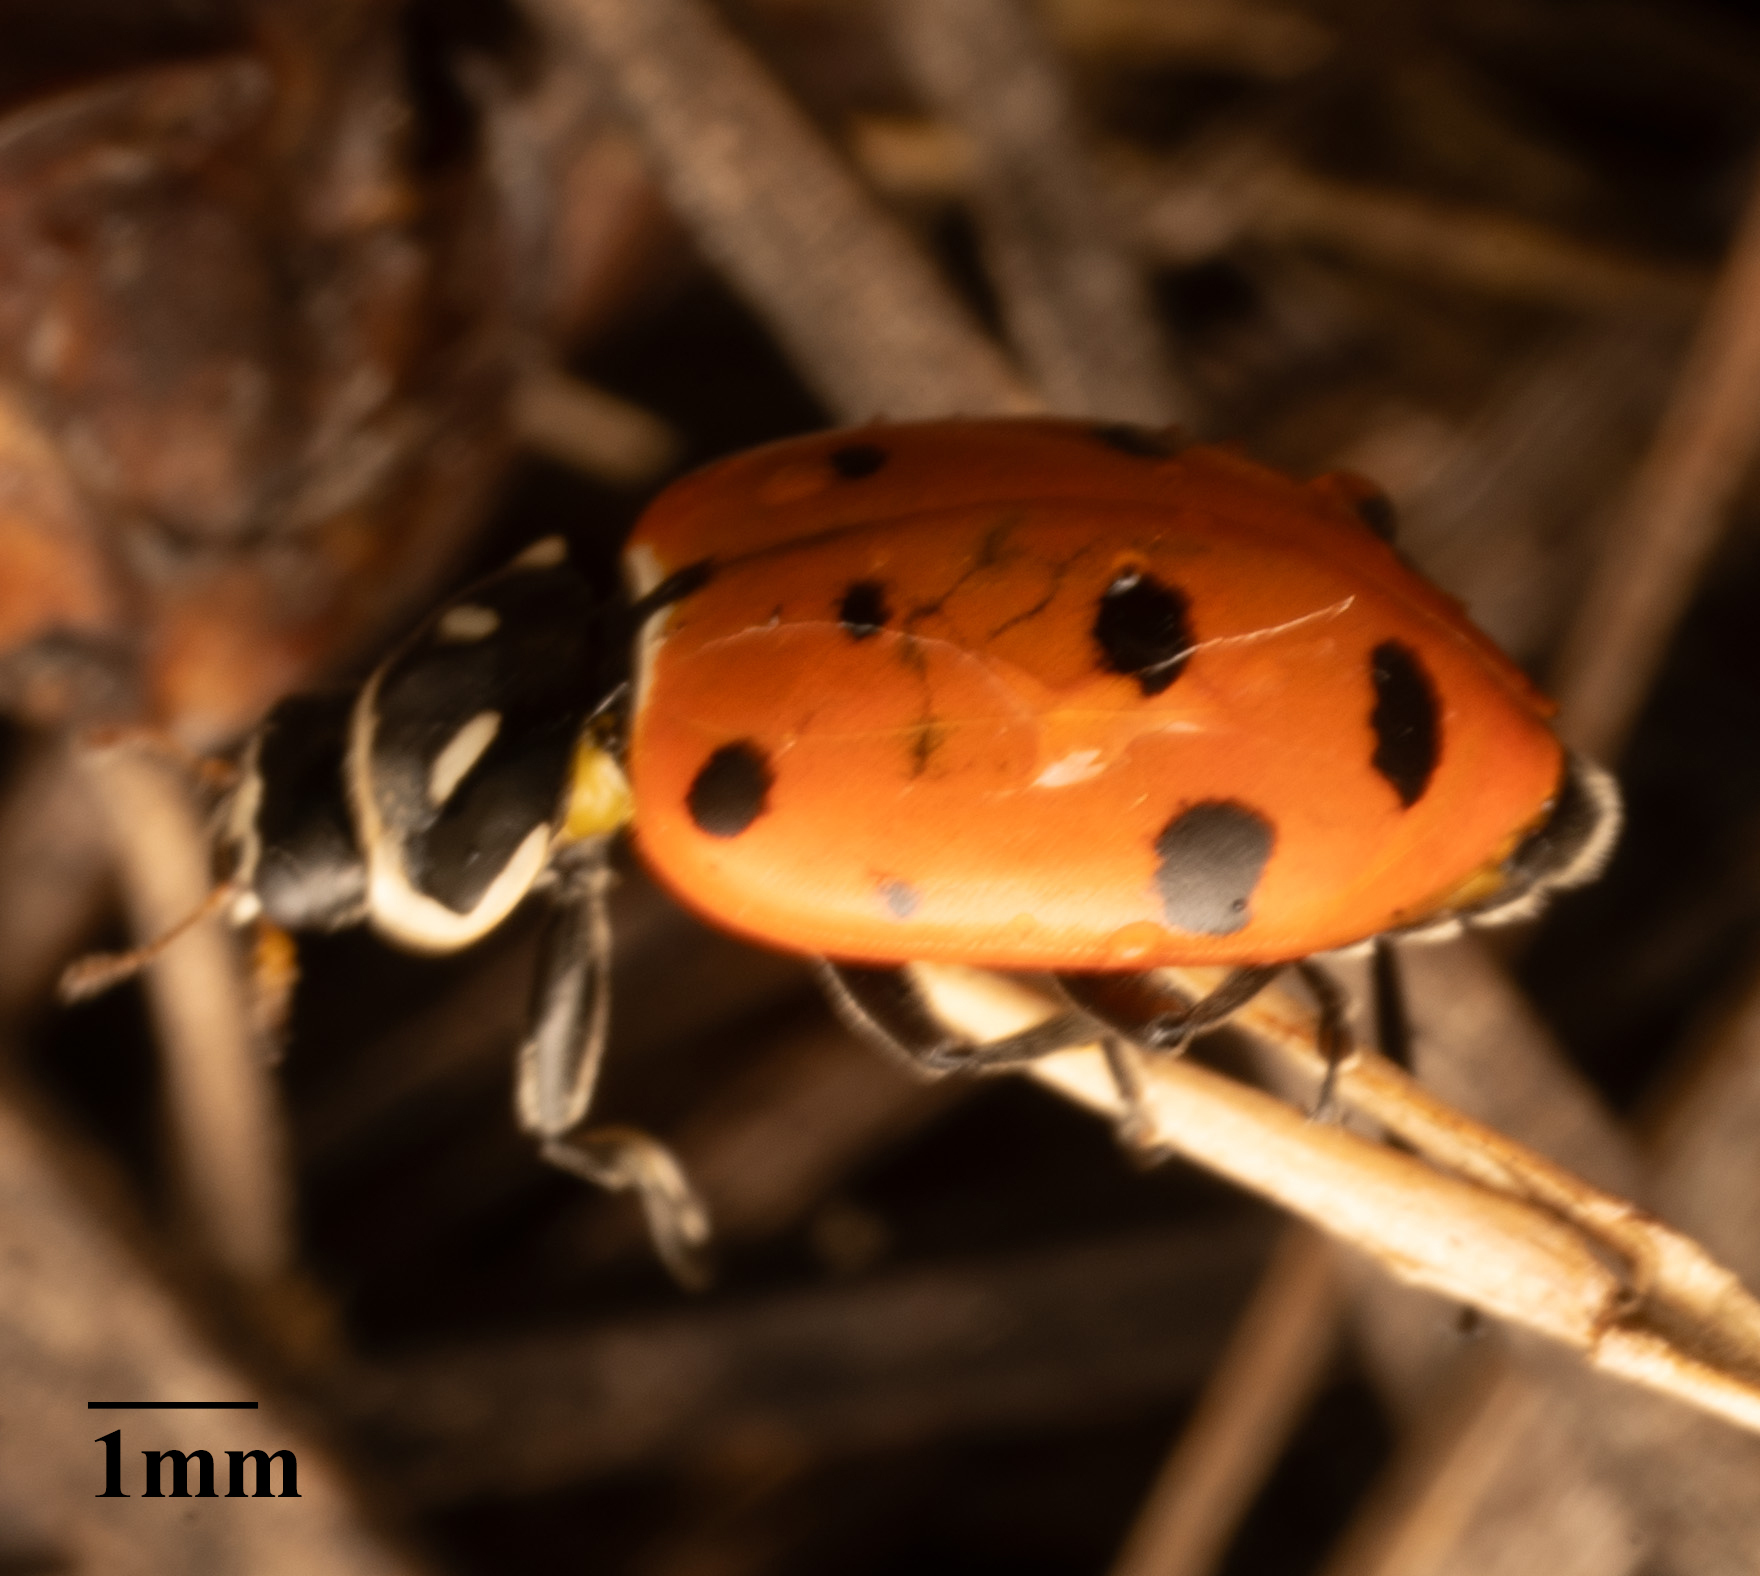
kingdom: Animalia
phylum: Arthropoda
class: Insecta
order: Coleoptera
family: Coccinellidae
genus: Hippodamia
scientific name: Hippodamia convergens
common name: Convergent lady beetle
